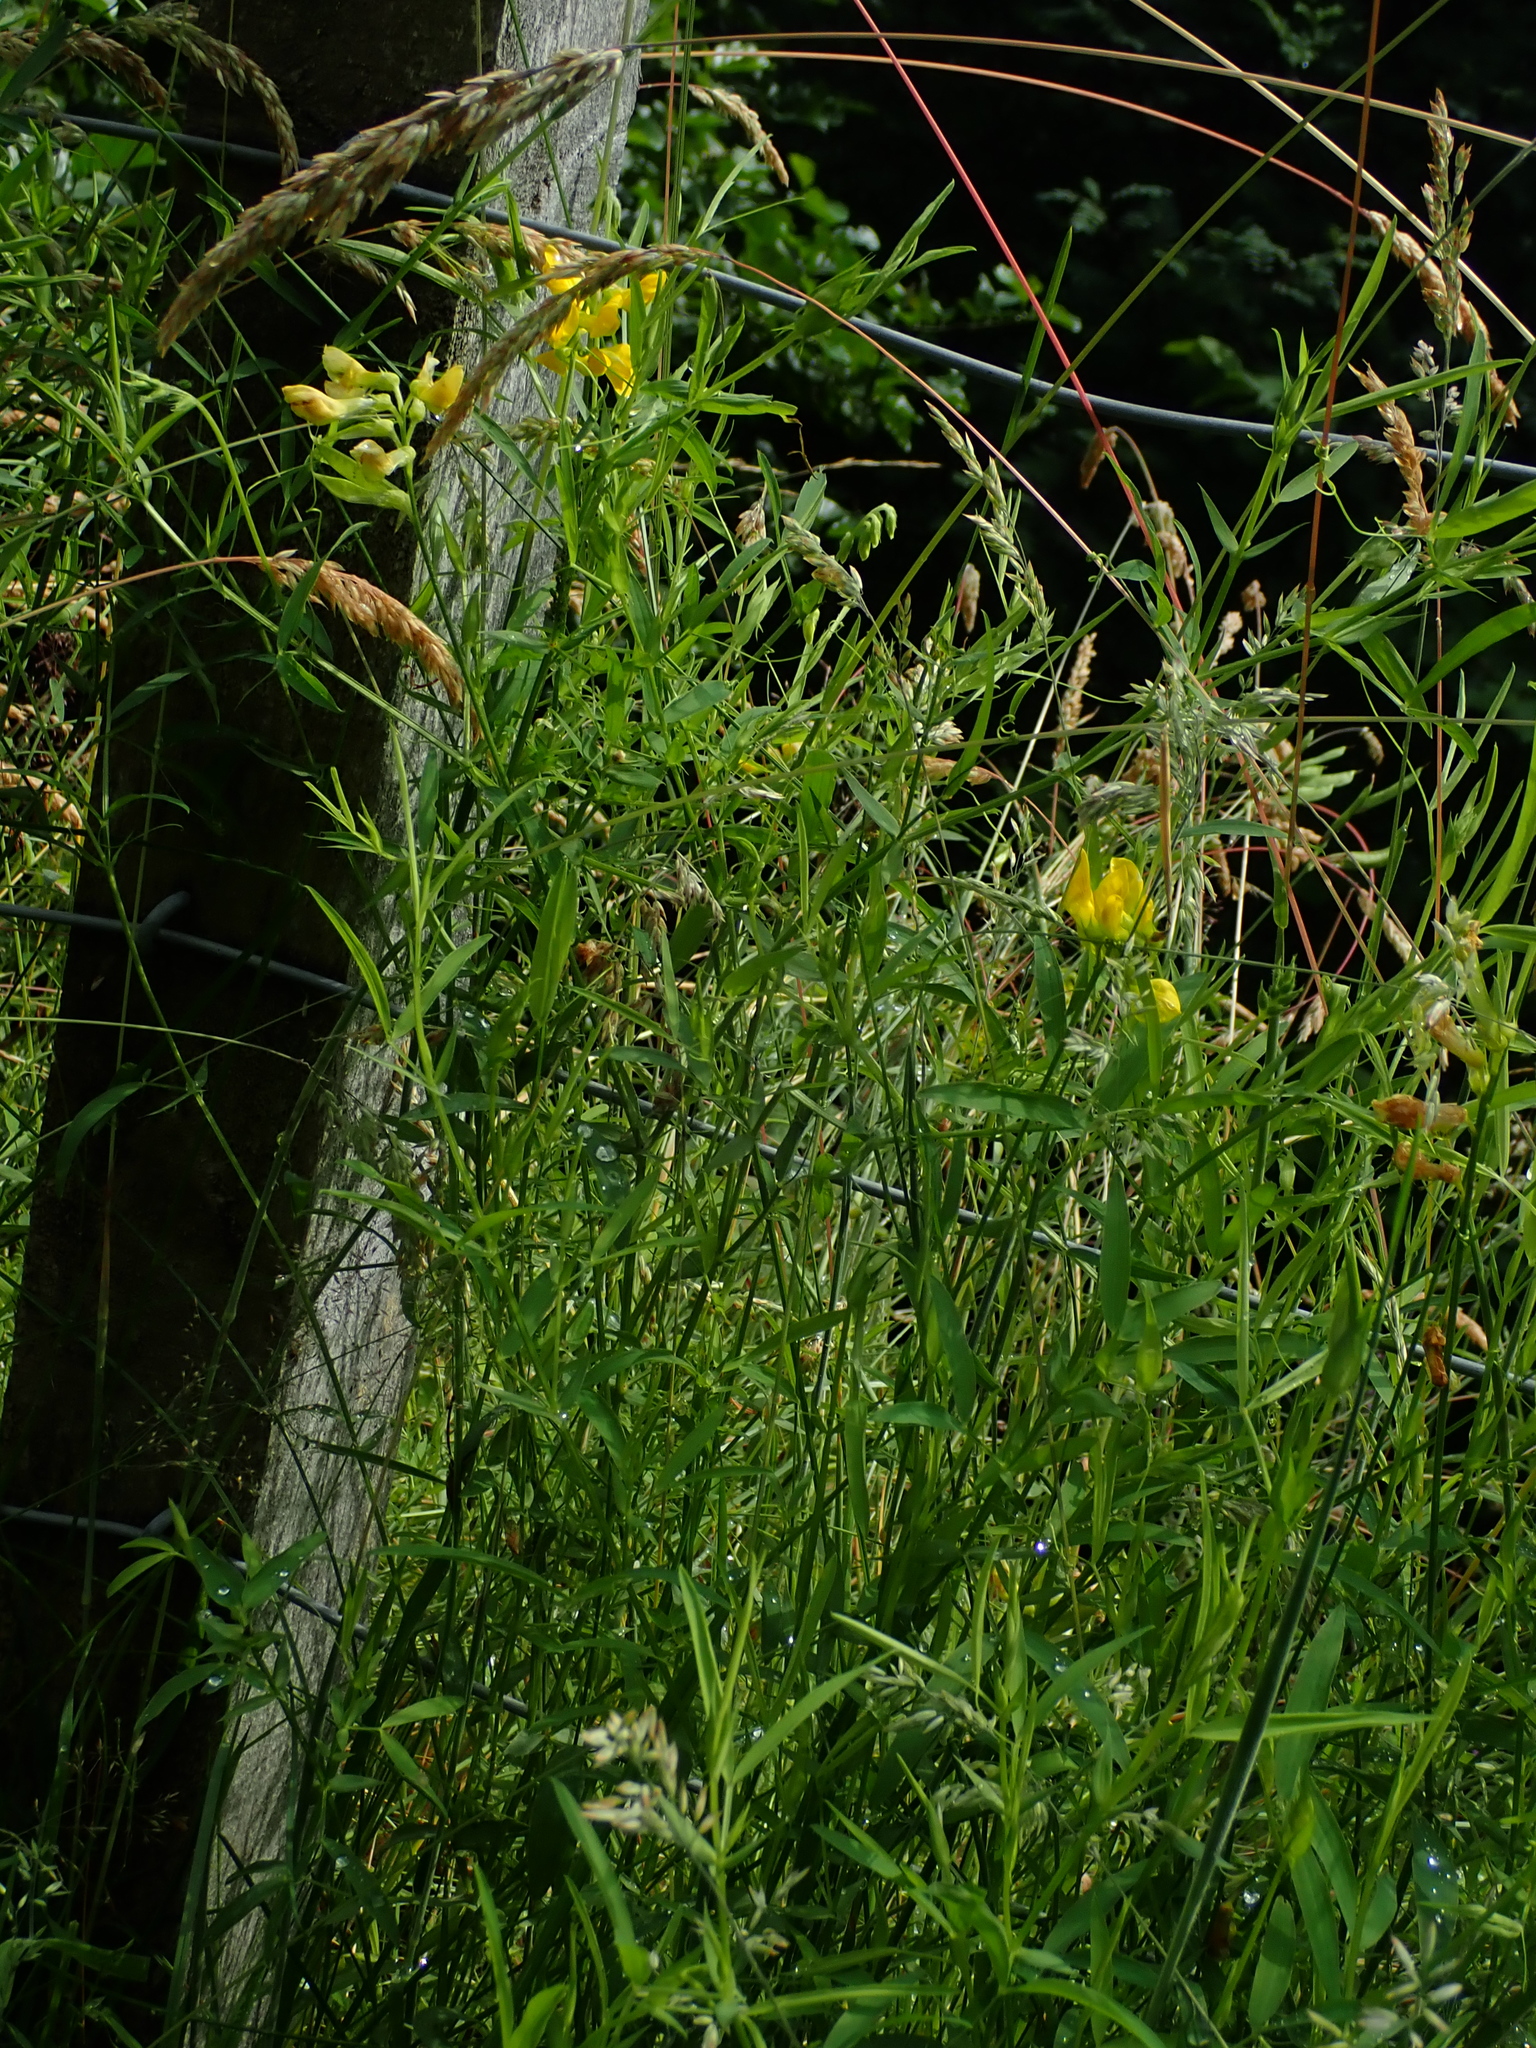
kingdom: Plantae
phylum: Tracheophyta
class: Magnoliopsida
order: Fabales
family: Fabaceae
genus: Lathyrus
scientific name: Lathyrus pratensis
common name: Meadow vetchling
